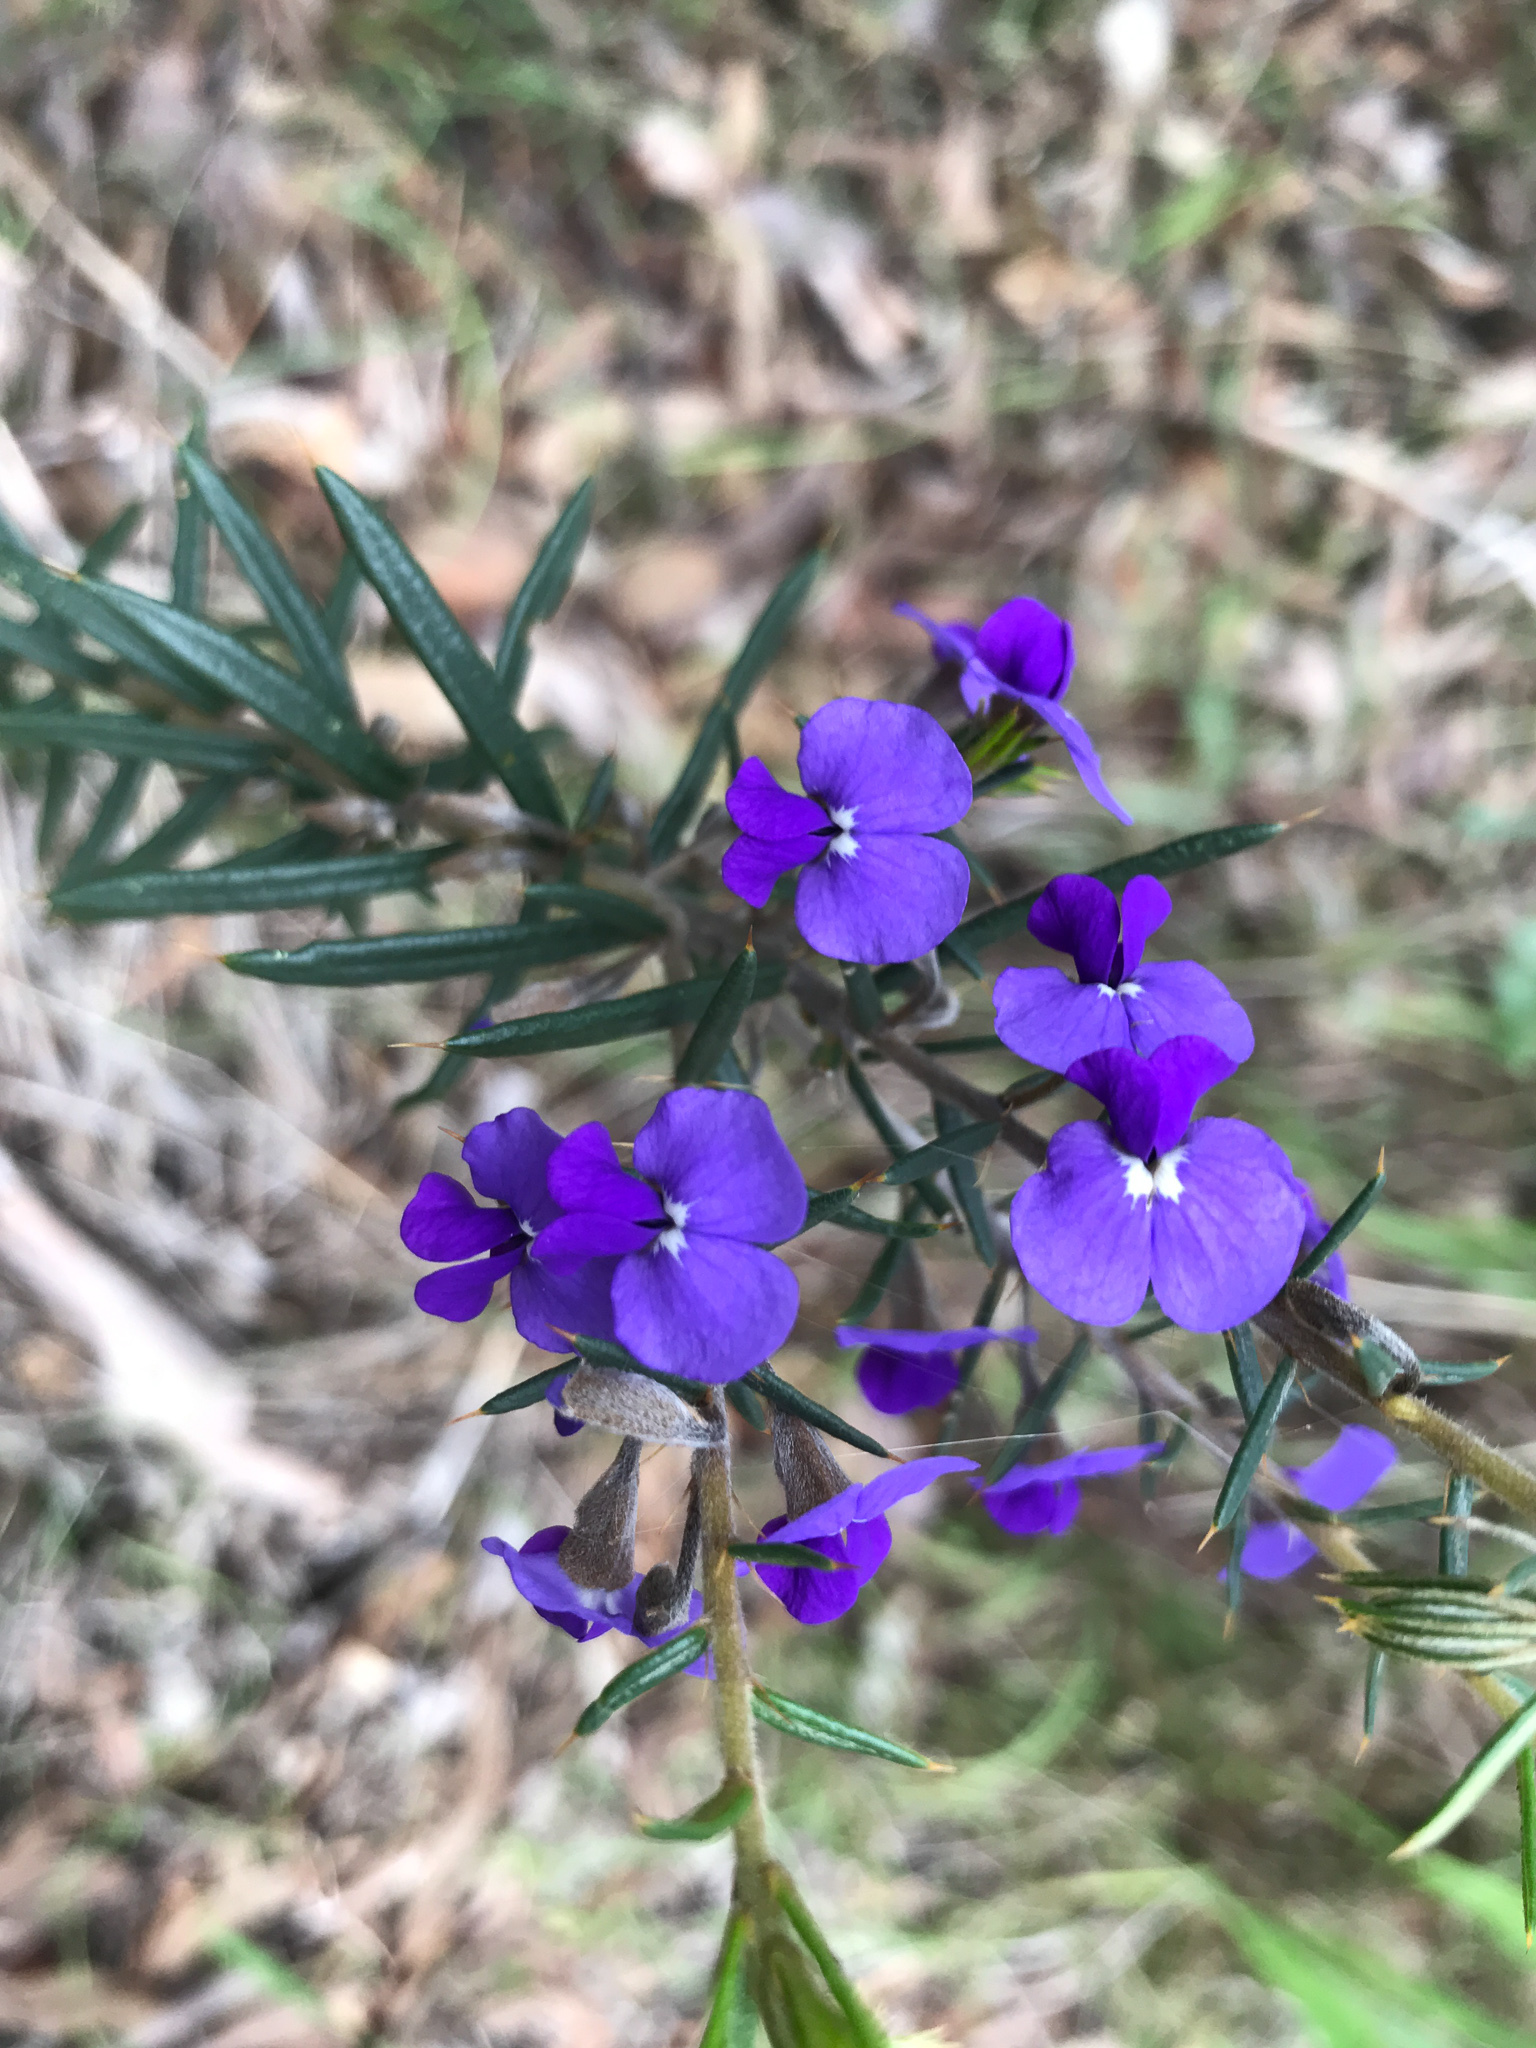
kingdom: Plantae
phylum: Tracheophyta
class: Magnoliopsida
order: Fabales
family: Fabaceae
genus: Hovea
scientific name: Hovea pungens
